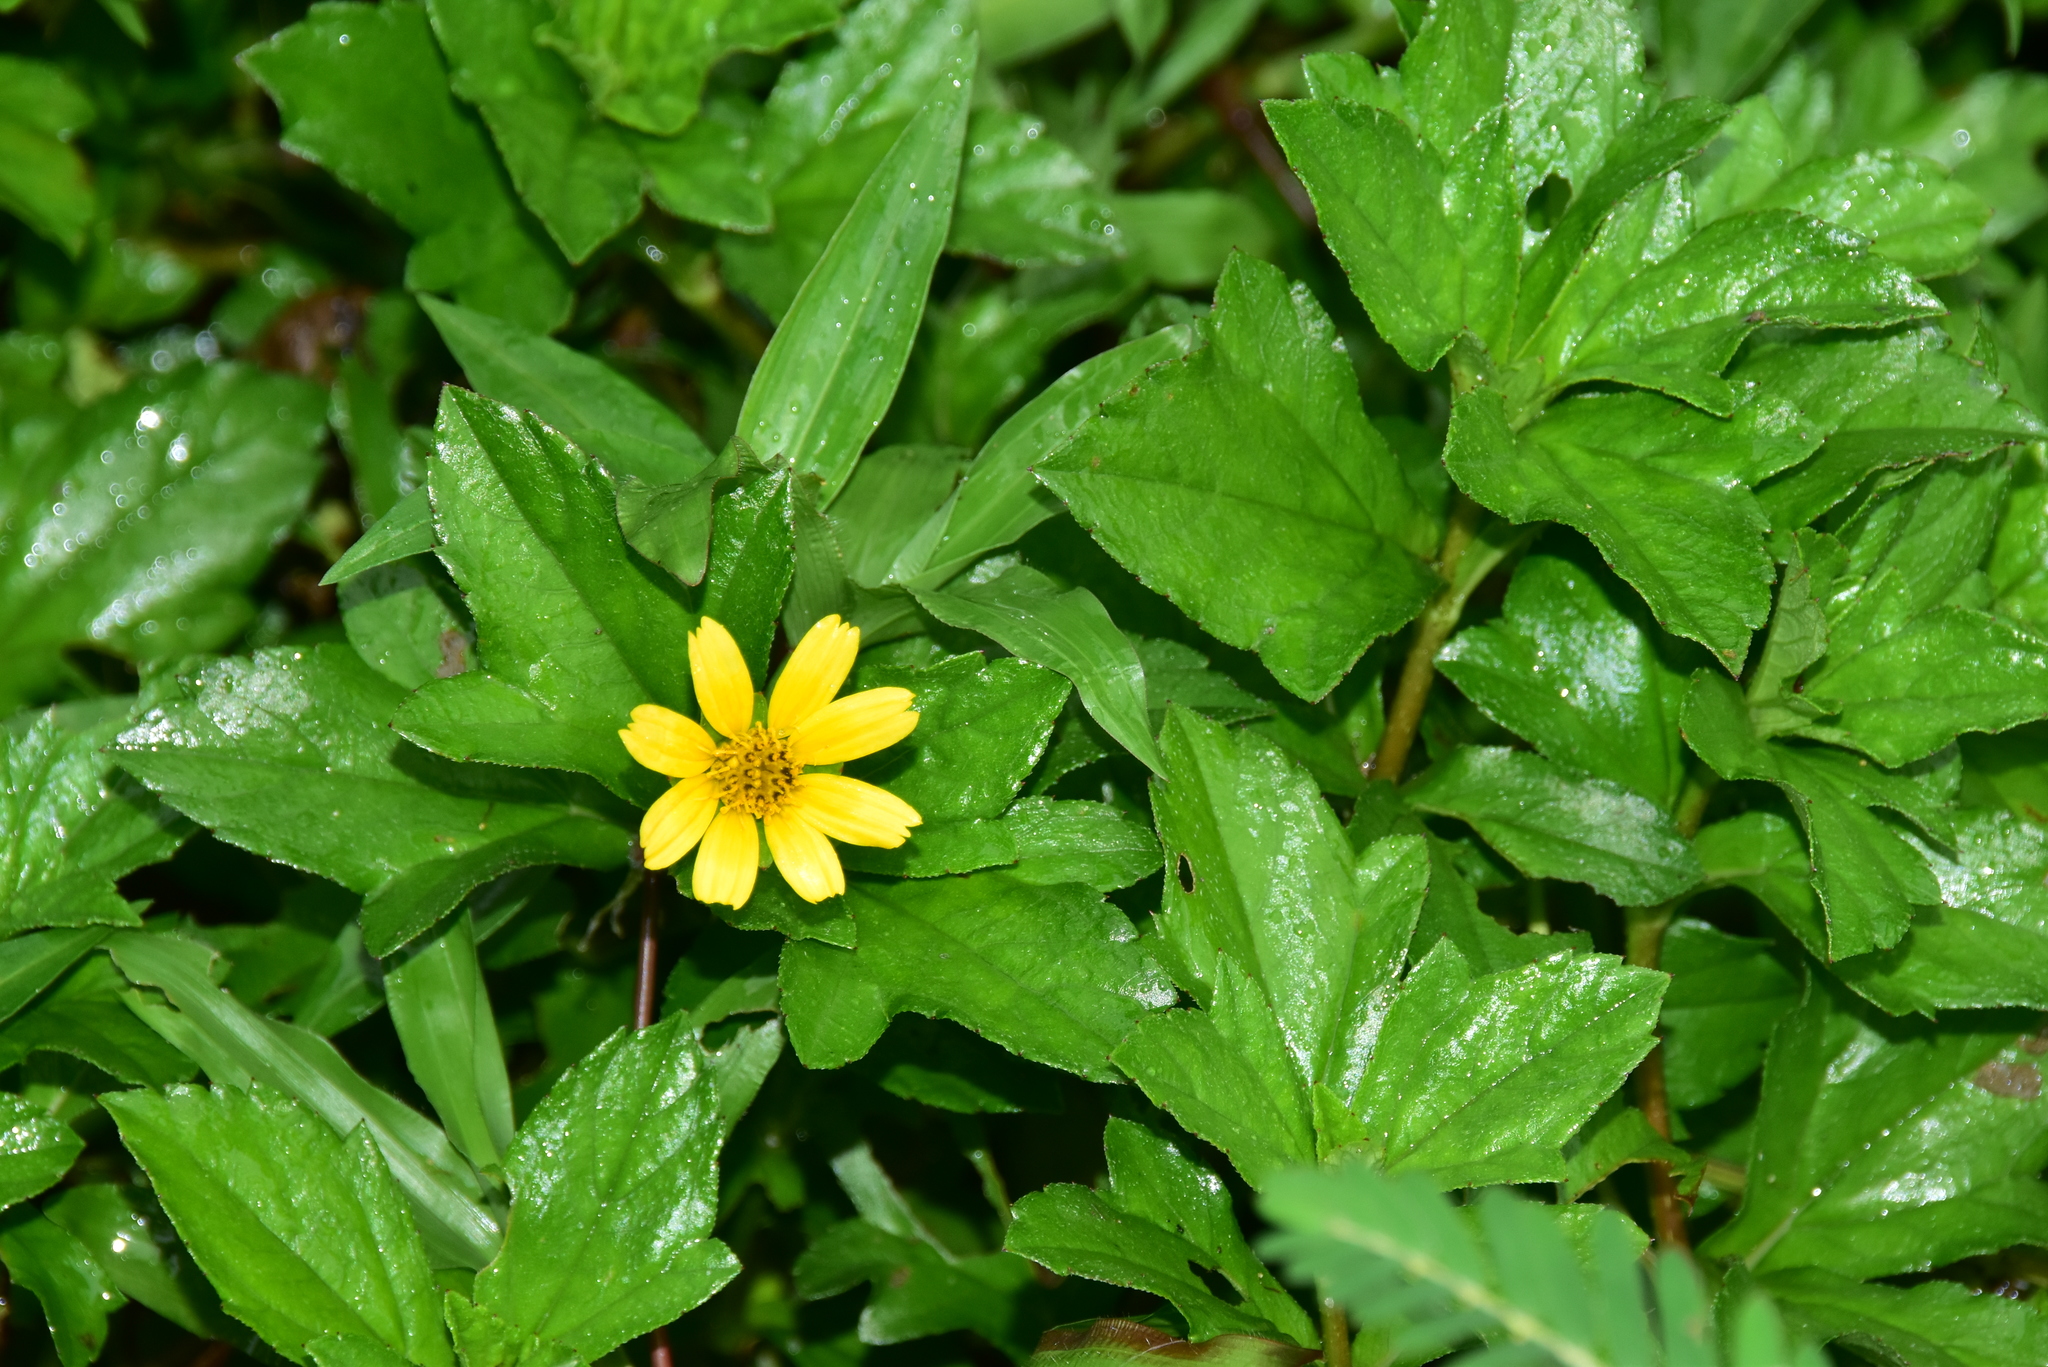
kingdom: Plantae
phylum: Tracheophyta
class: Magnoliopsida
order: Asterales
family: Asteraceae
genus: Sphagneticola
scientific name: Sphagneticola trilobata
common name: Bay biscayne creeping-oxeye
